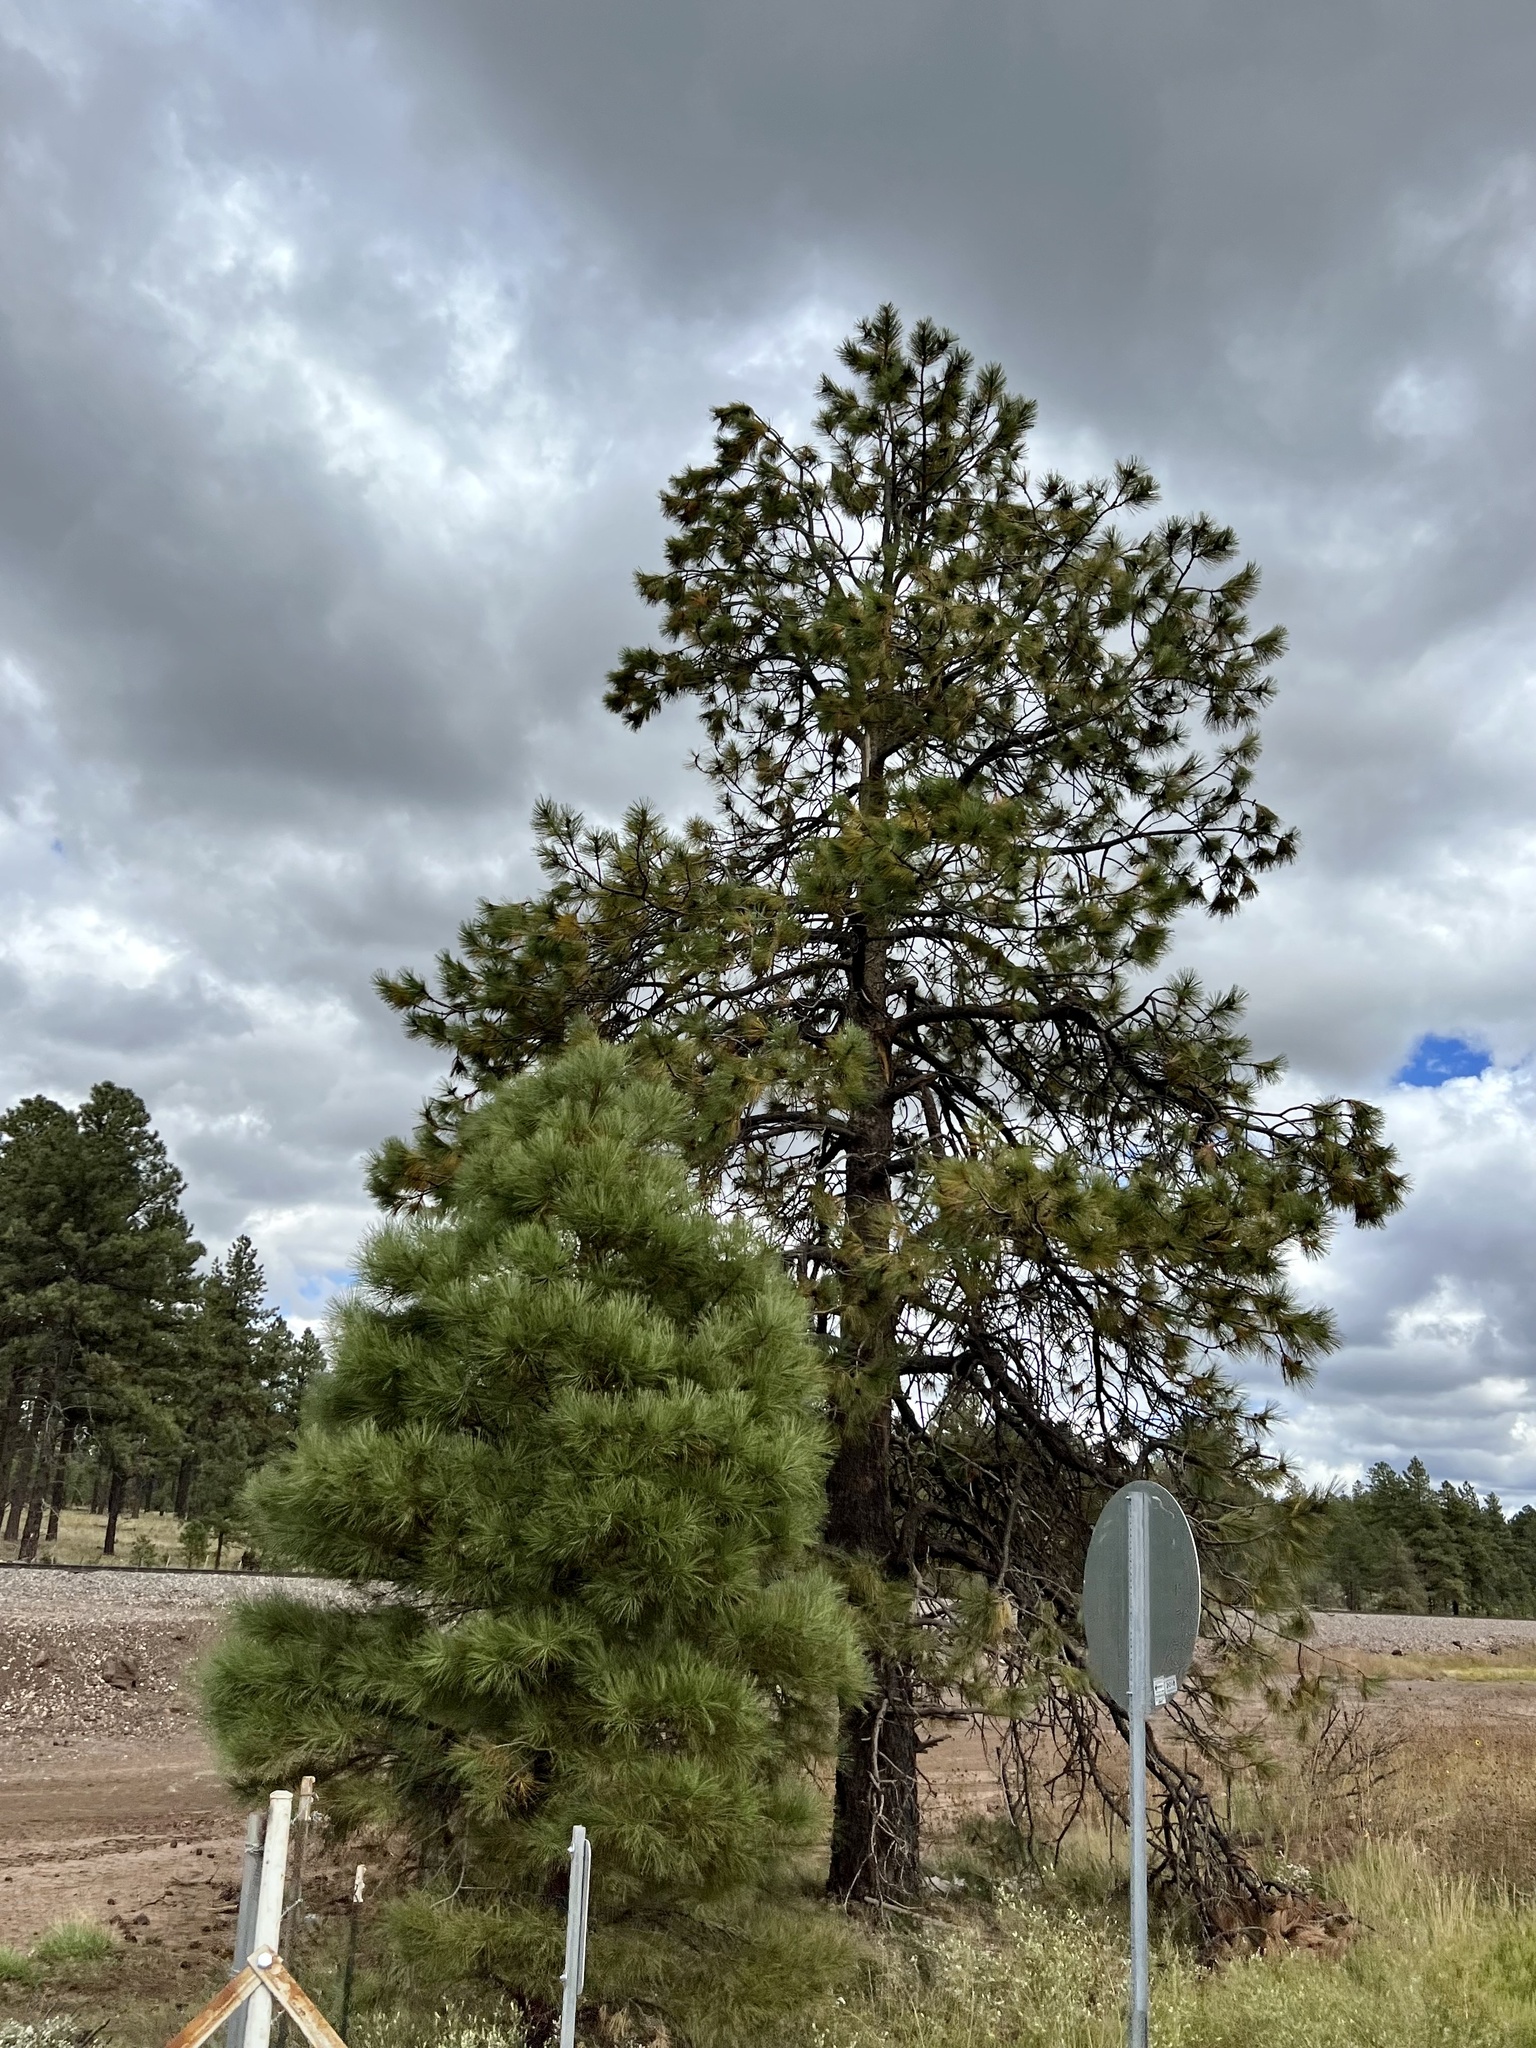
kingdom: Plantae
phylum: Tracheophyta
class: Pinopsida
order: Pinales
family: Pinaceae
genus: Pinus
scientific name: Pinus ponderosa
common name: Western yellow-pine
